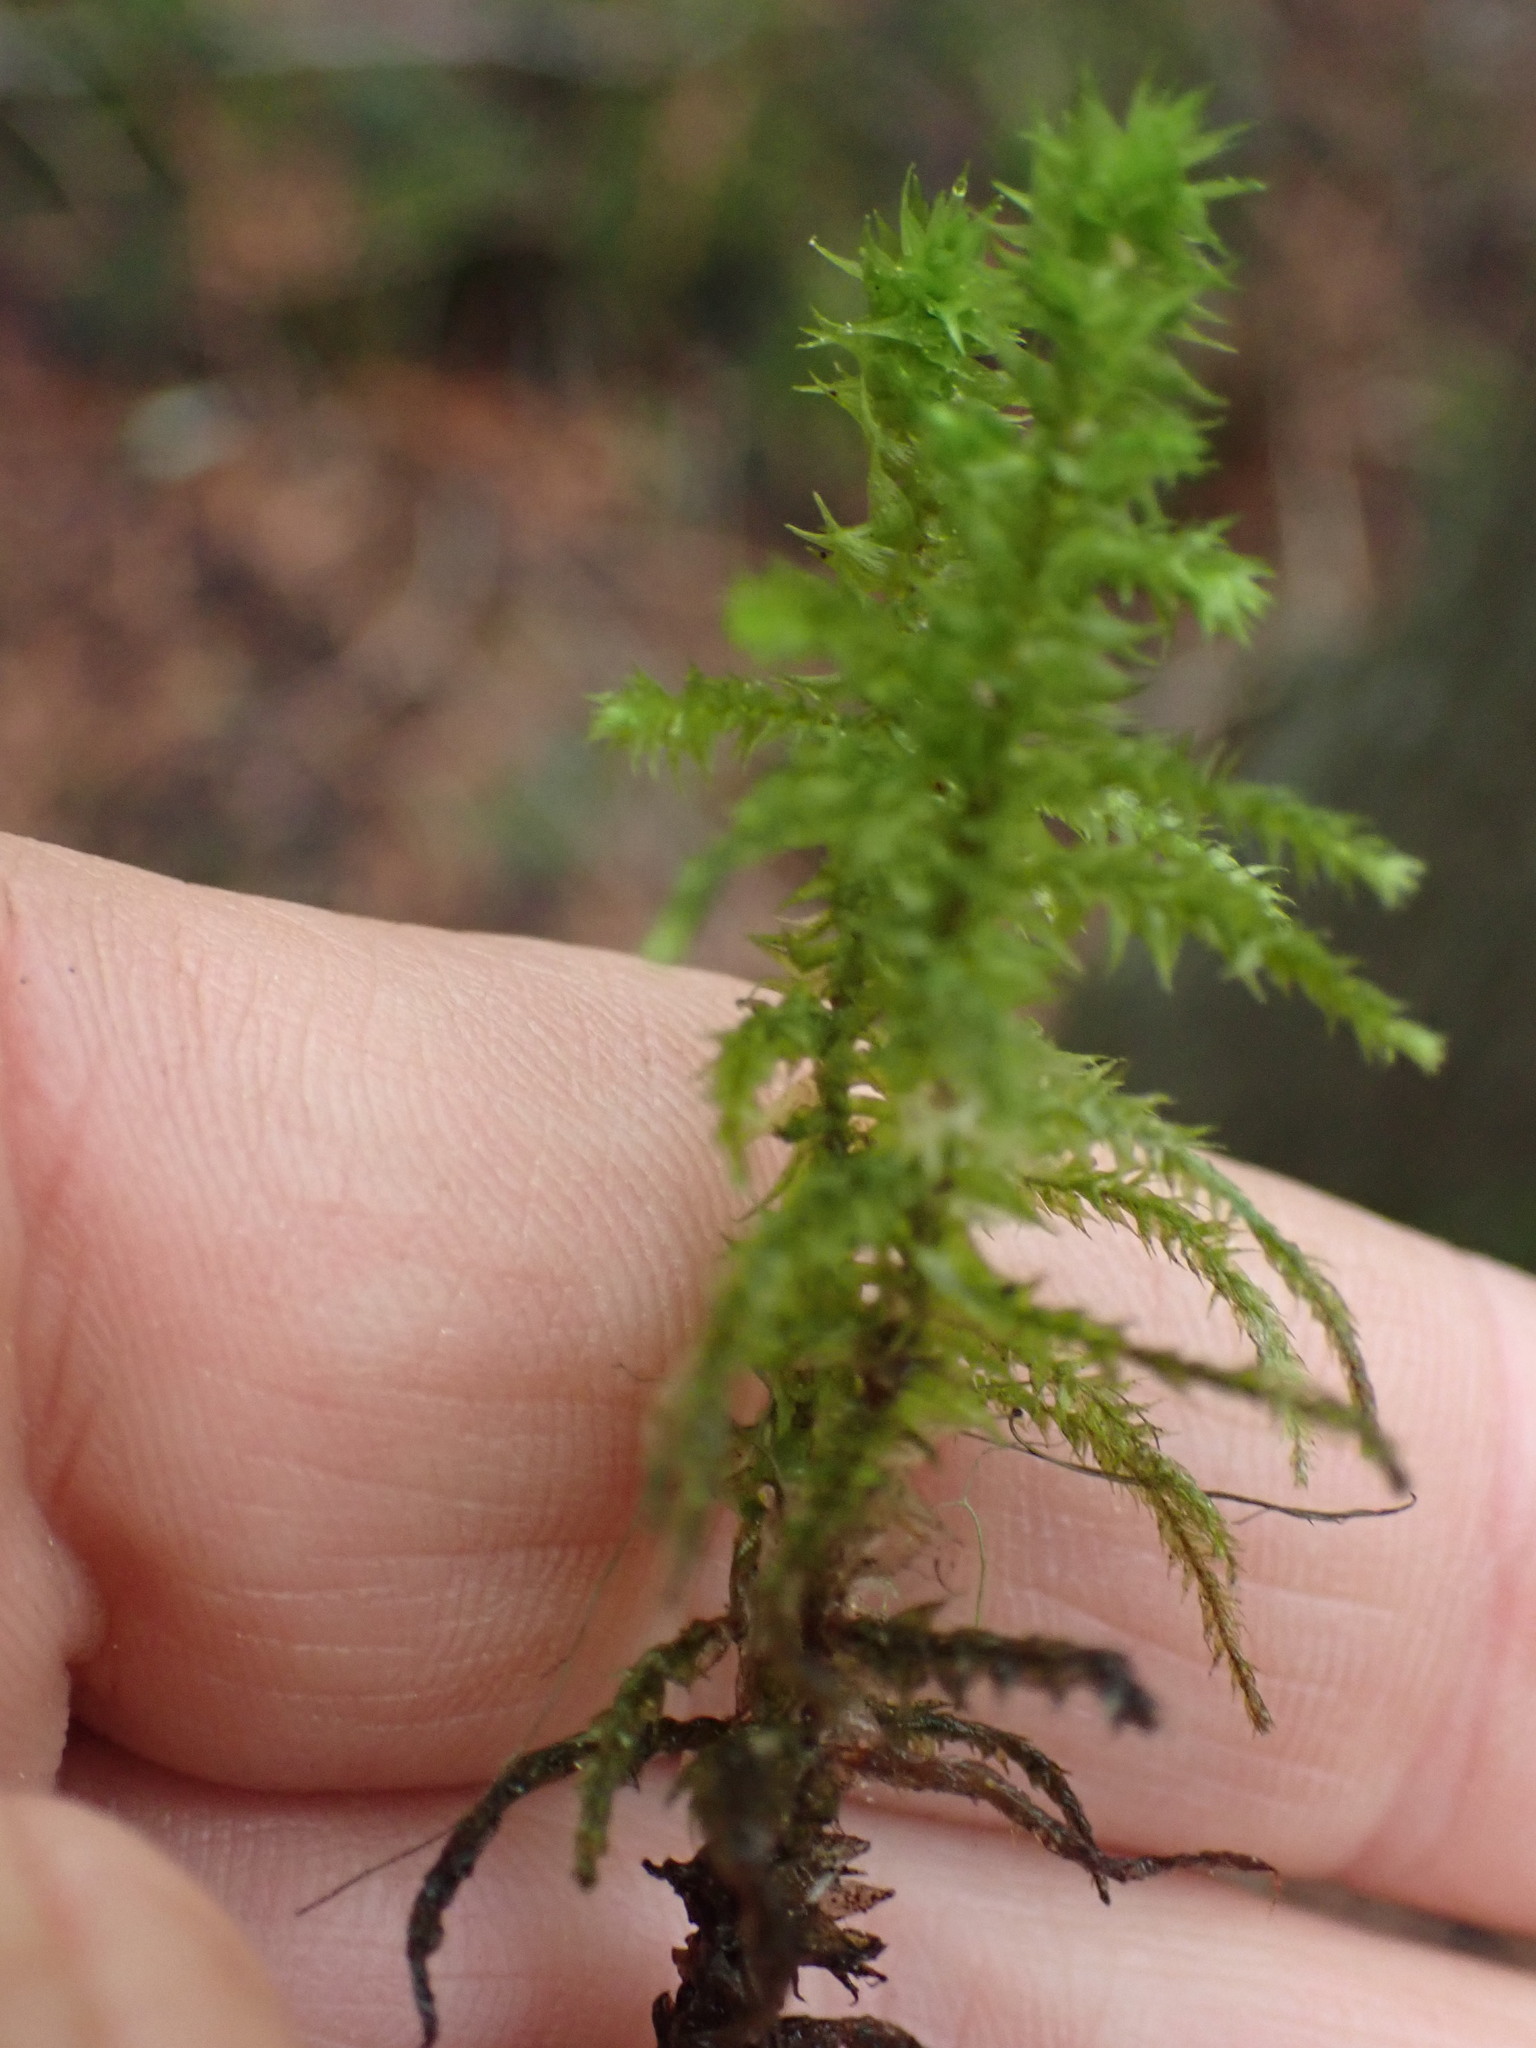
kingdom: Plantae
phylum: Bryophyta
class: Bryopsida
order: Hypnales
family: Hylocomiaceae
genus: Hylocomiadelphus
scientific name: Hylocomiadelphus triquetrus
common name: Rough goose neck moss
